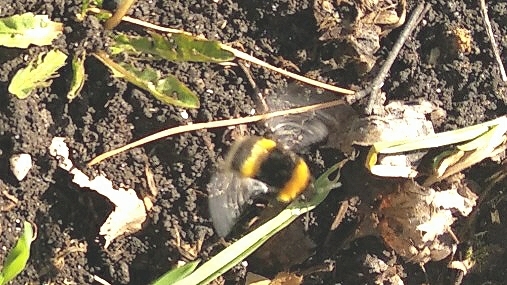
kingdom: Animalia
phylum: Arthropoda
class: Insecta
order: Hymenoptera
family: Apidae
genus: Bombus
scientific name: Bombus lucorum
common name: White-tailed bumblebee
